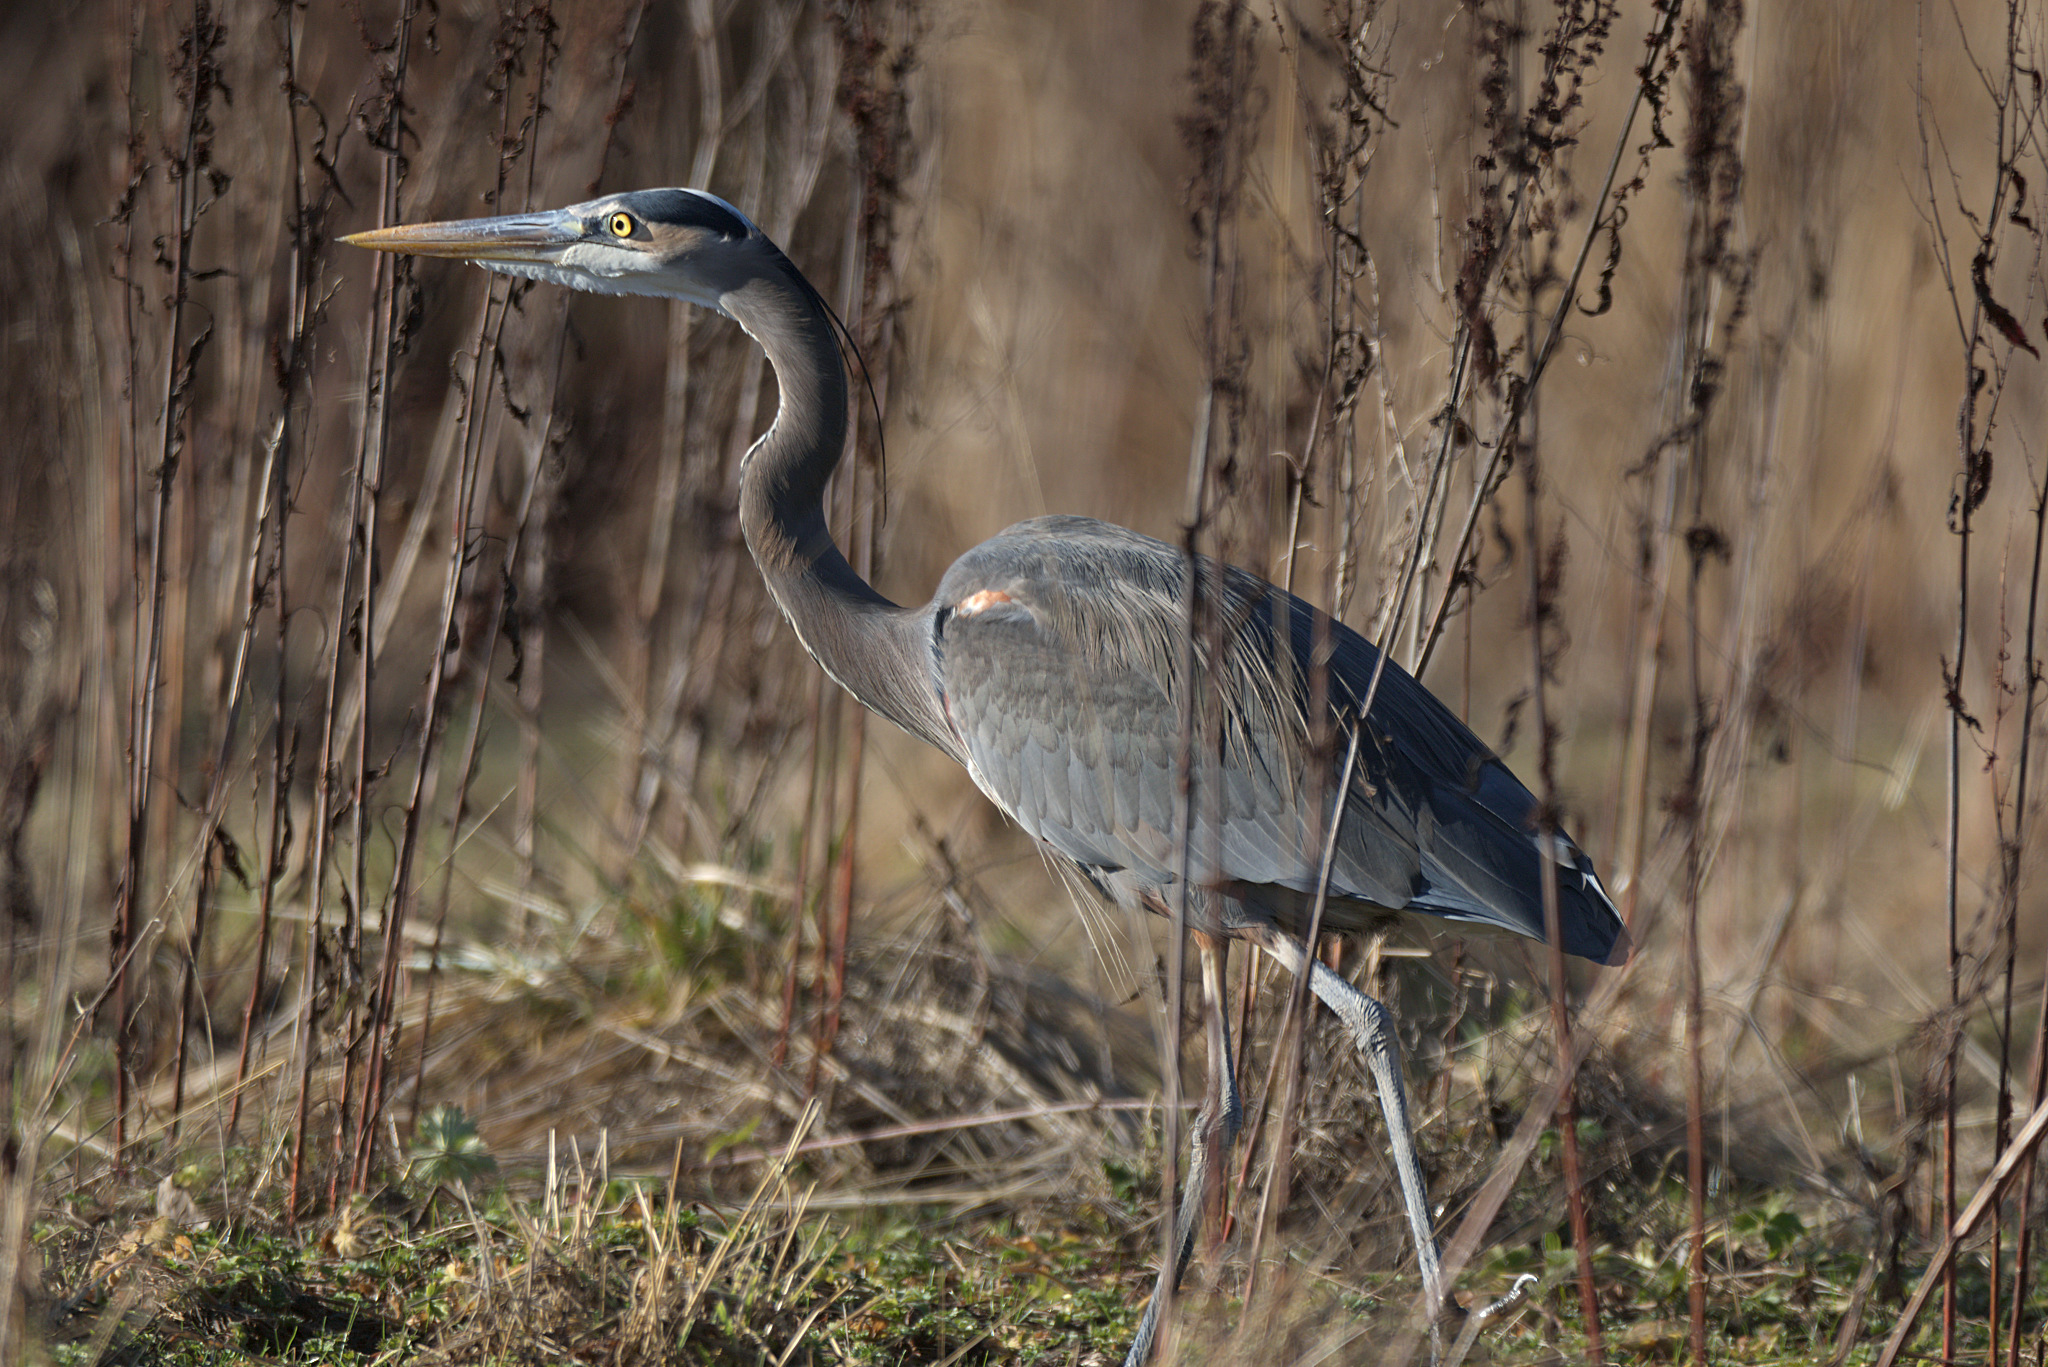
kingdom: Animalia
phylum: Chordata
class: Aves
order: Pelecaniformes
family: Ardeidae
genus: Ardea
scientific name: Ardea herodias
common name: Great blue heron
